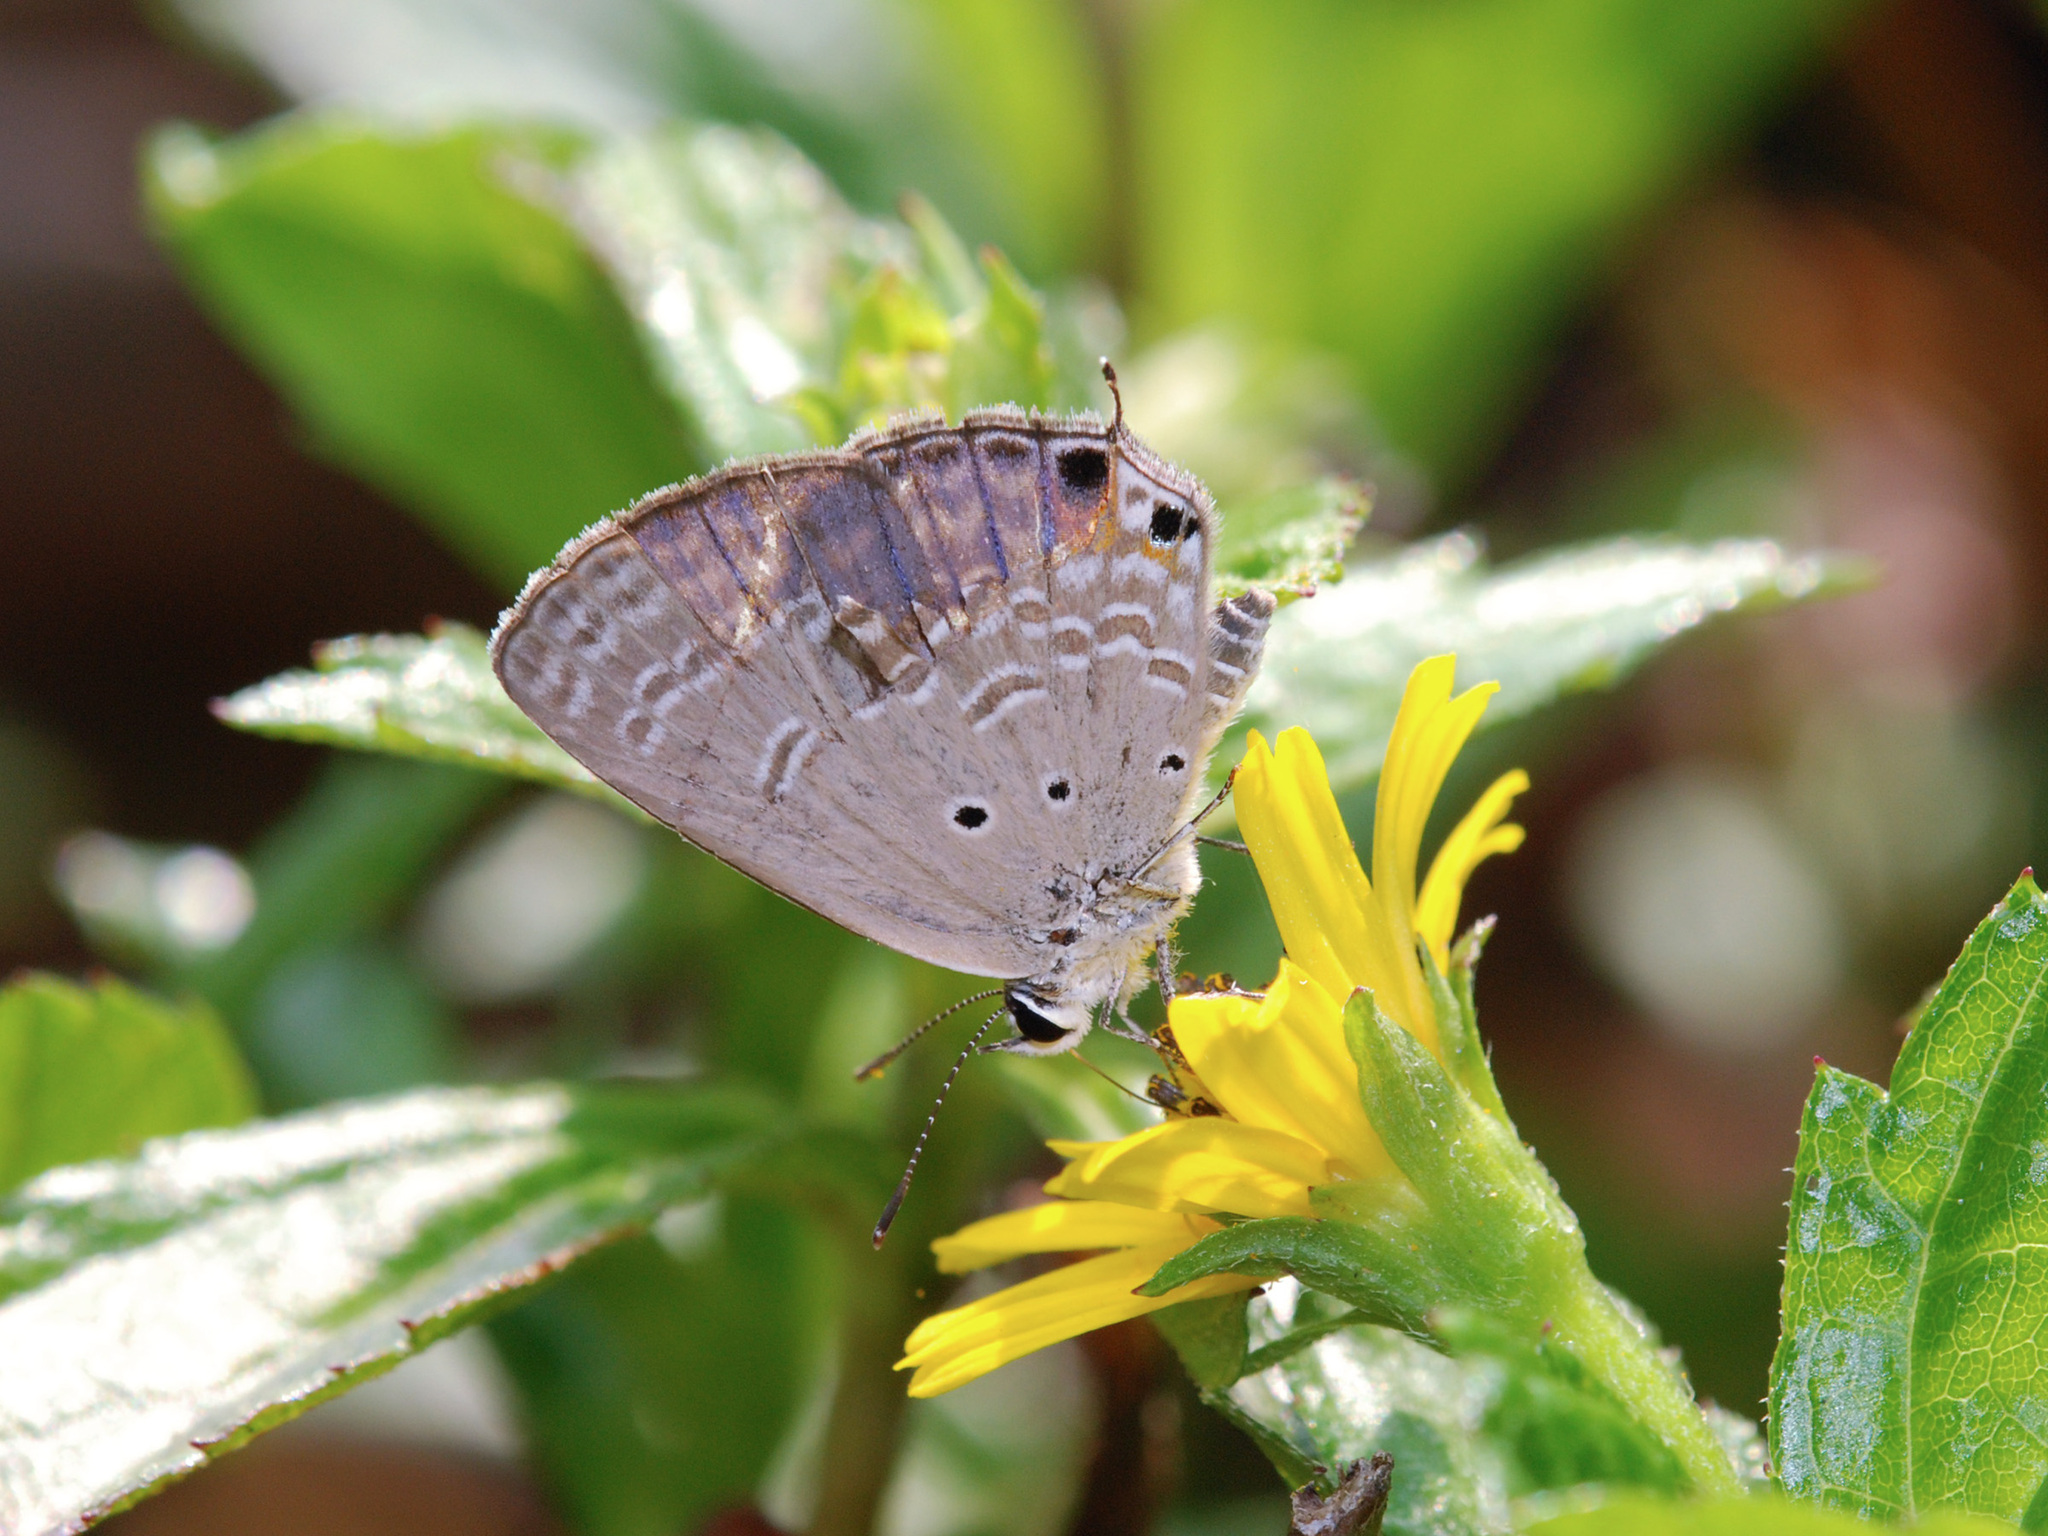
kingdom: Animalia
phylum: Arthropoda
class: Insecta
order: Lepidoptera
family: Lycaenidae
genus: Luthrodes
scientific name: Luthrodes pandava
